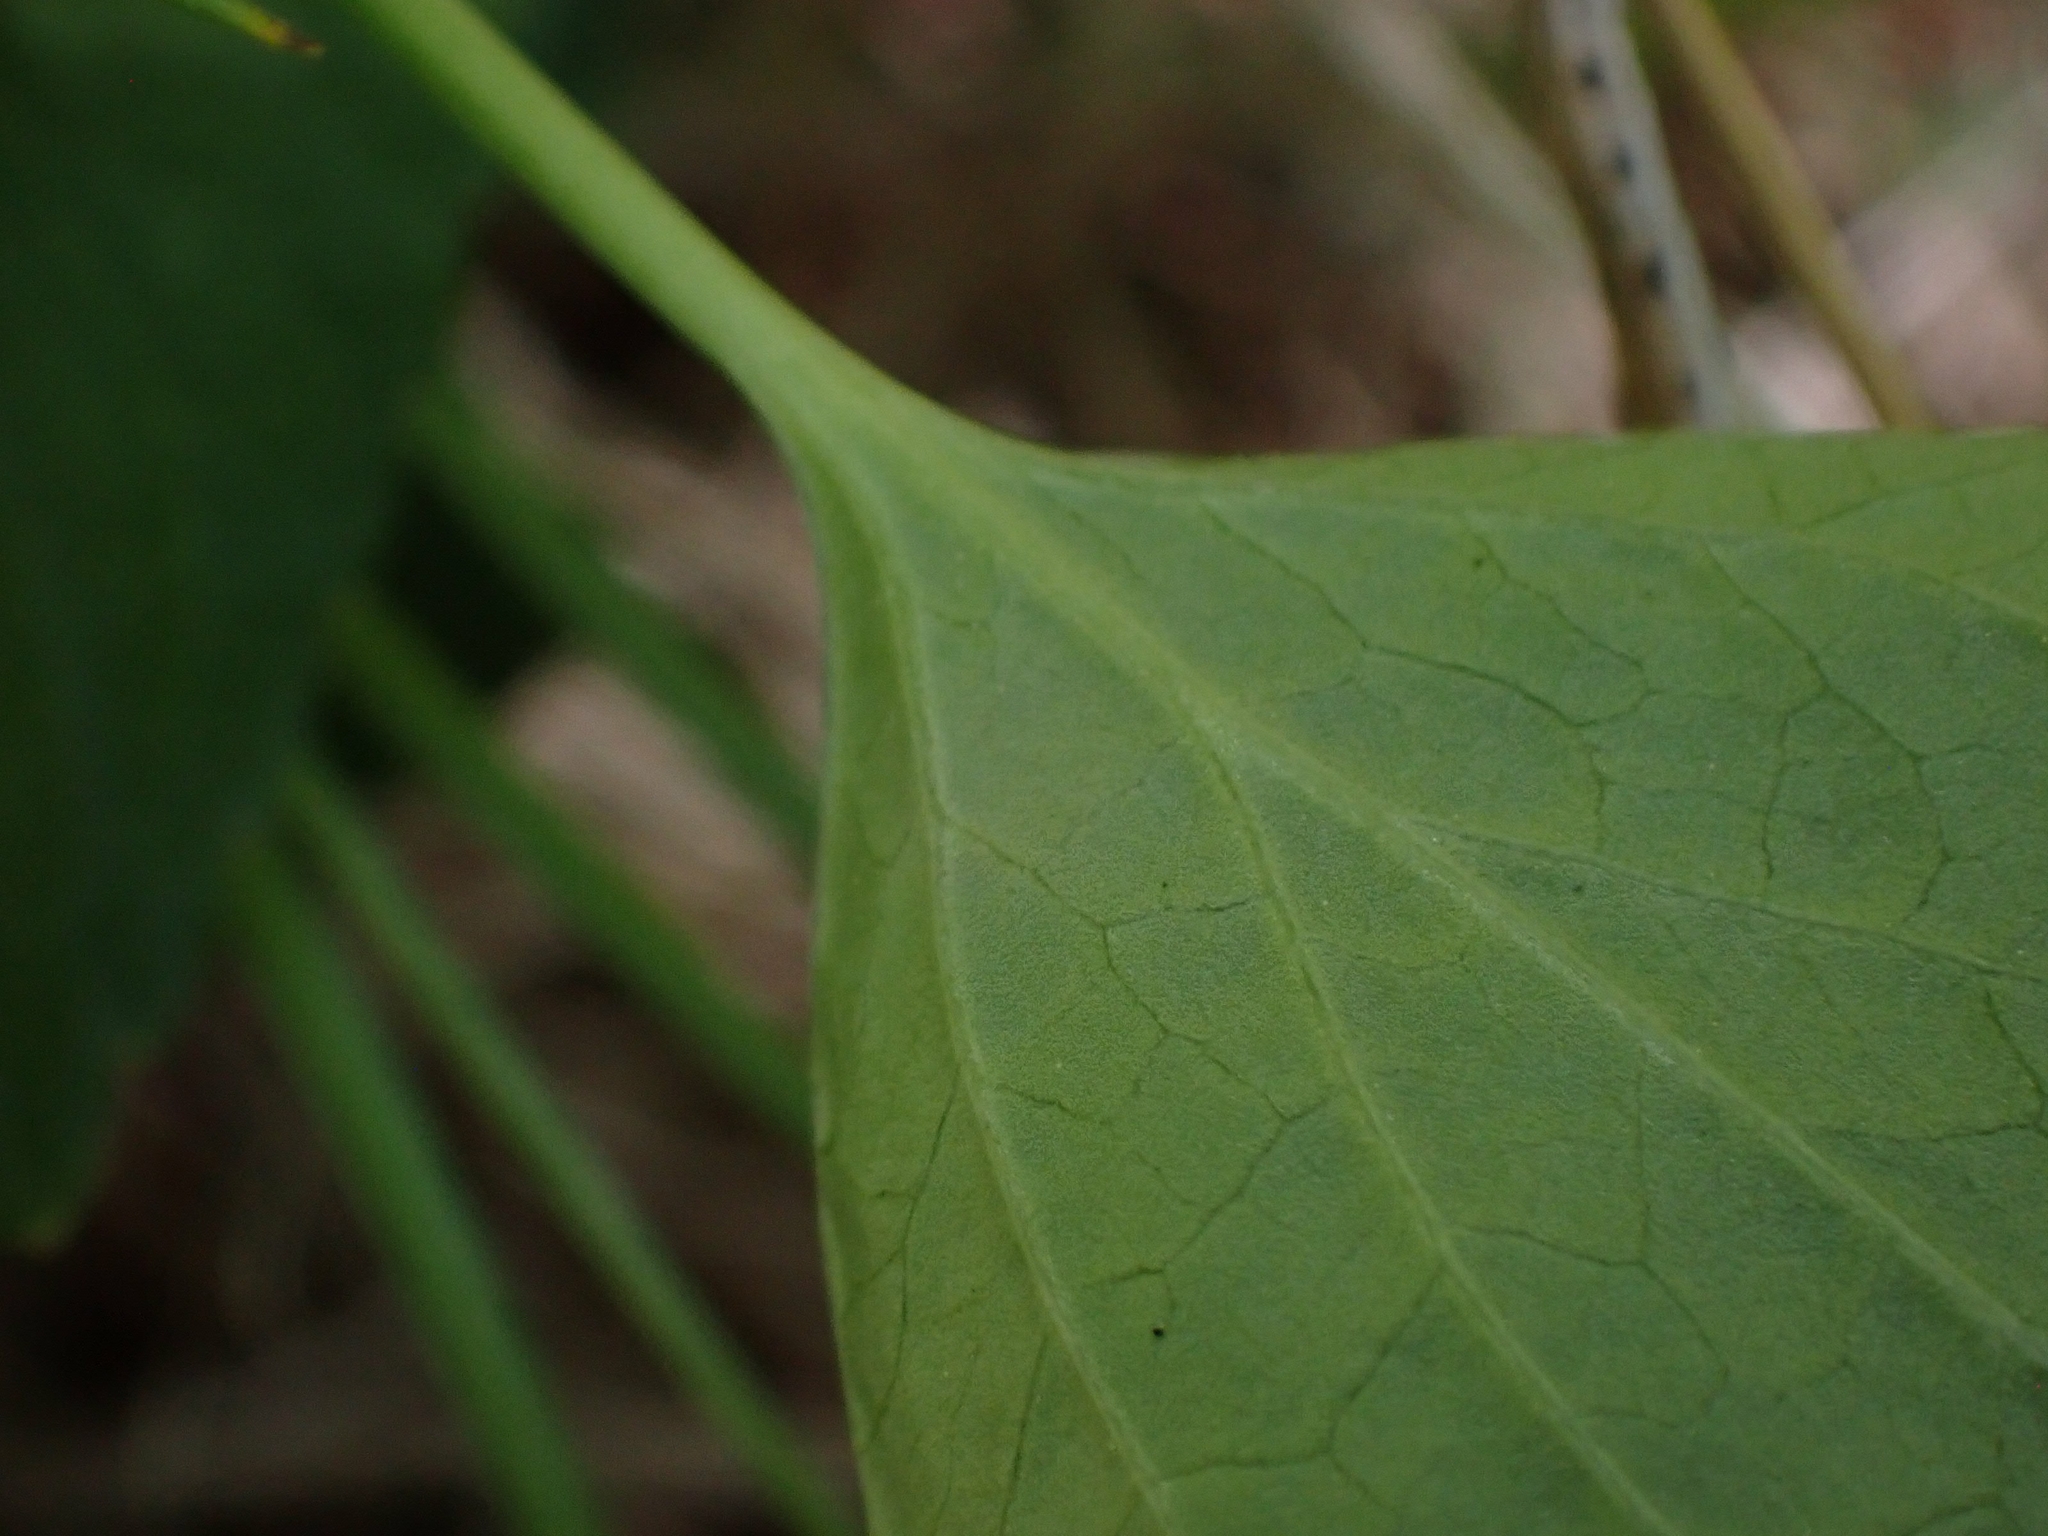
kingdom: Plantae
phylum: Tracheophyta
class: Magnoliopsida
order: Malpighiales
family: Violaceae
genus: Viola
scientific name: Viola nephrophylla
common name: Blue meadow violet
